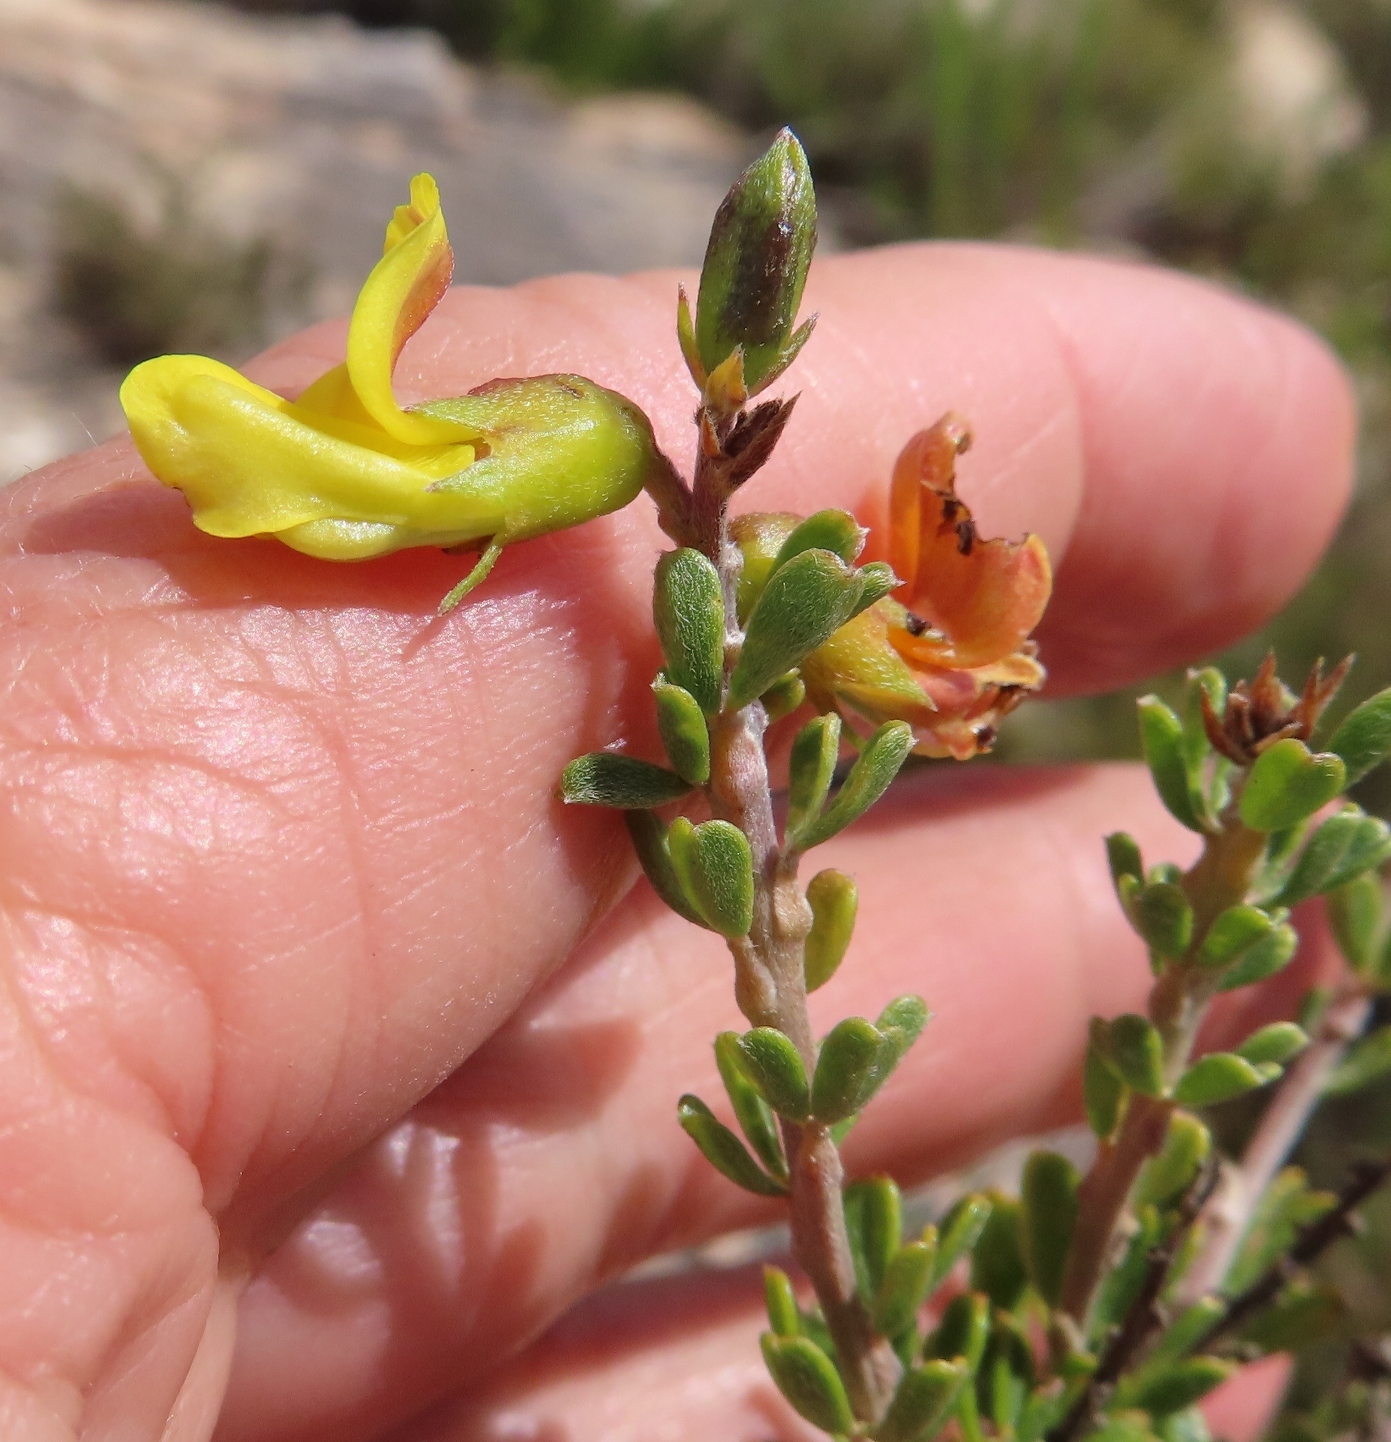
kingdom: Plantae
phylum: Tracheophyta
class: Magnoliopsida
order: Fabales
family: Fabaceae
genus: Wiborgiella
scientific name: Wiborgiella sessilifolia
